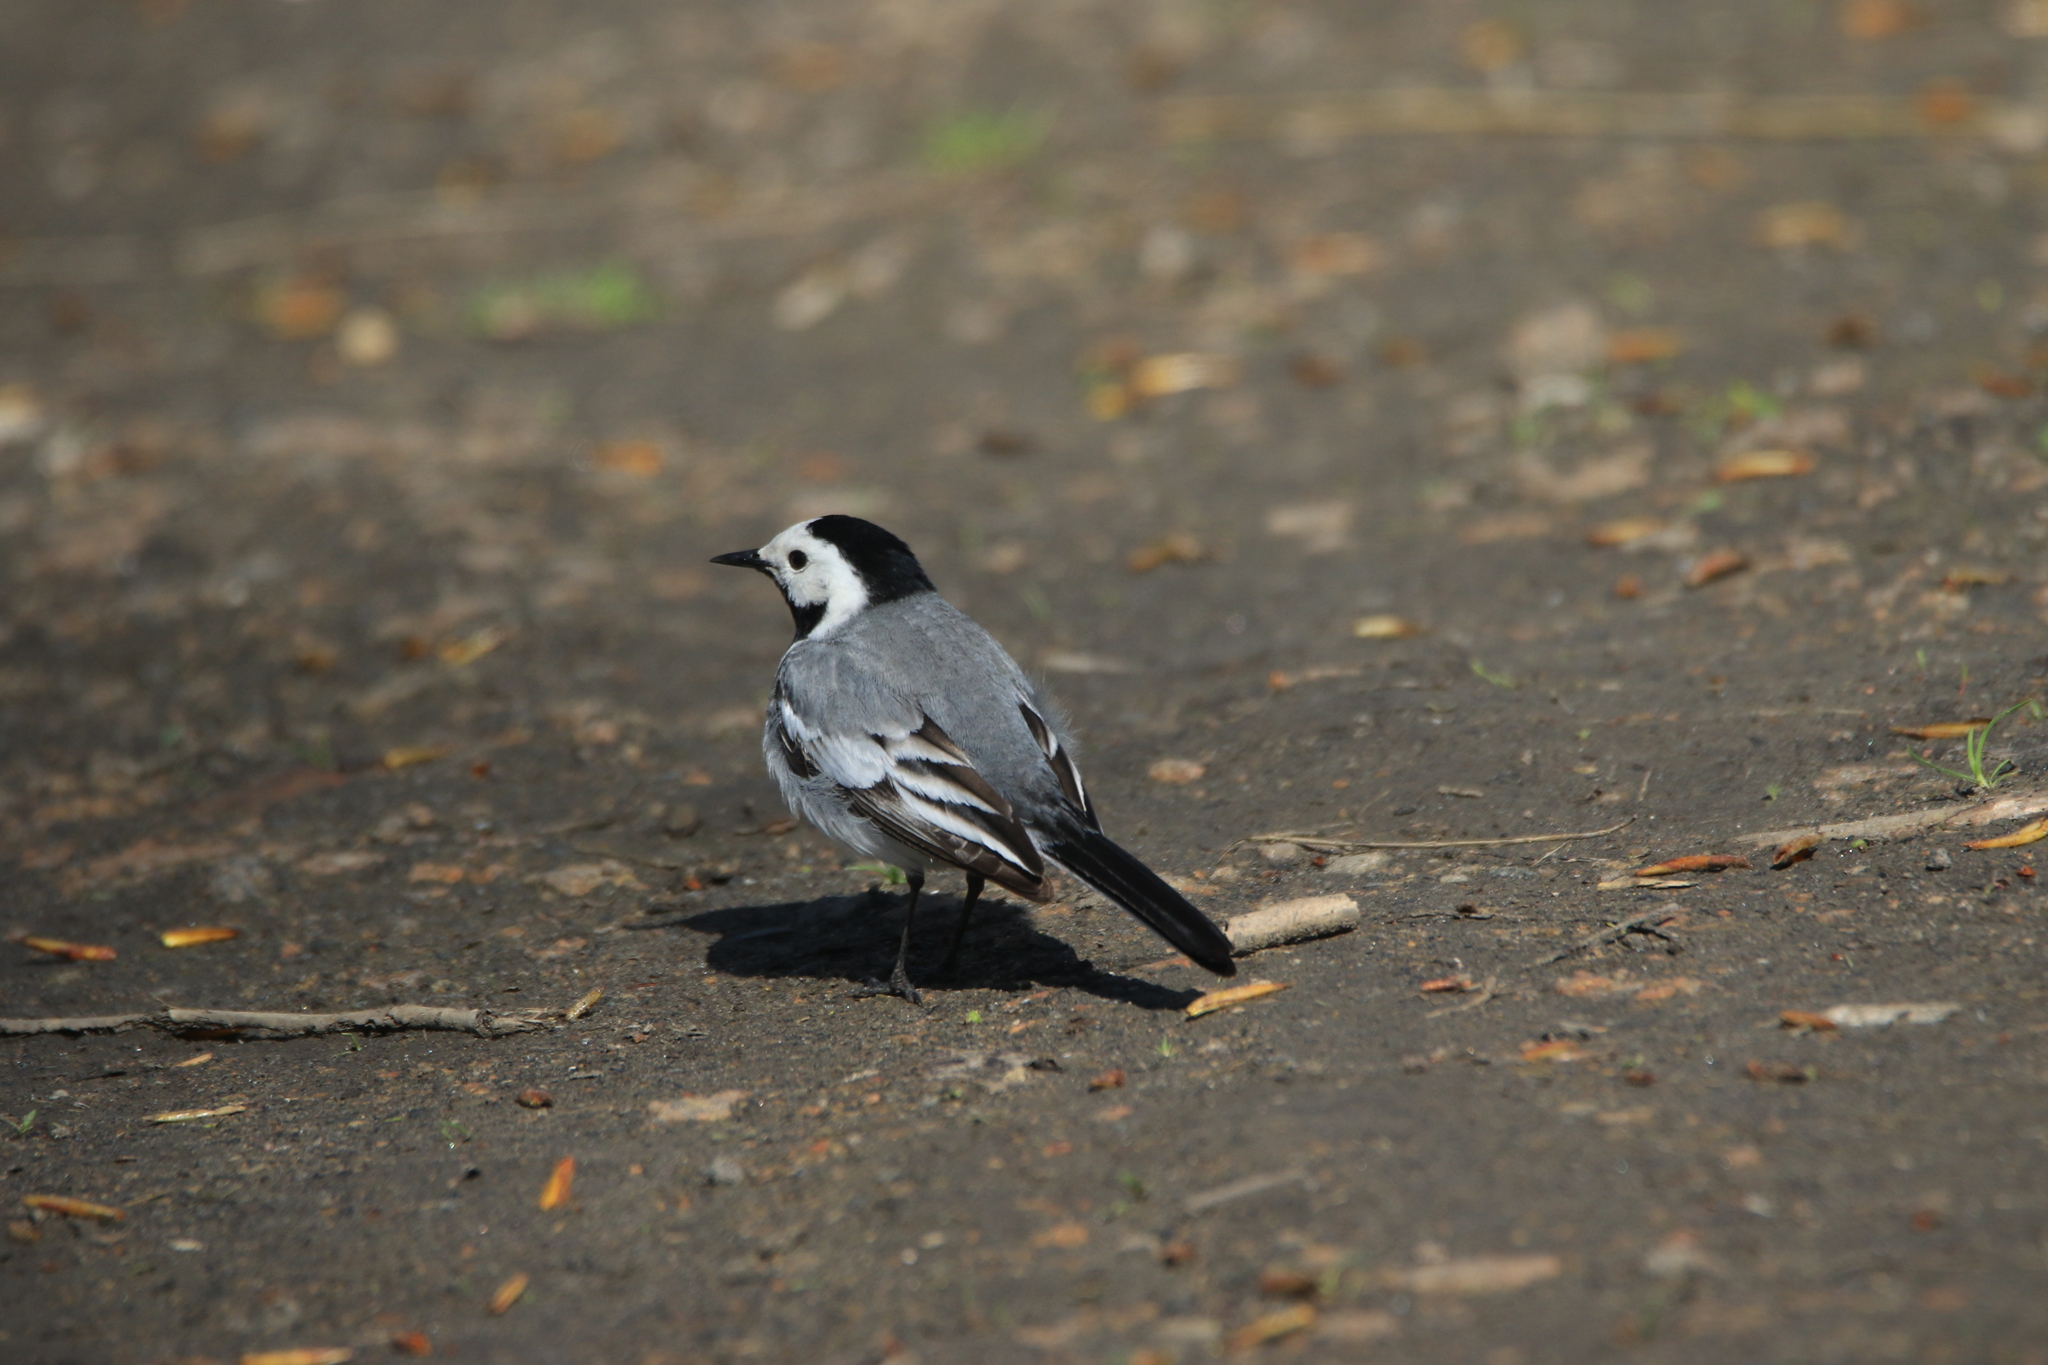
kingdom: Animalia
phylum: Chordata
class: Aves
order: Passeriformes
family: Motacillidae
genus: Motacilla
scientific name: Motacilla alba
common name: White wagtail
